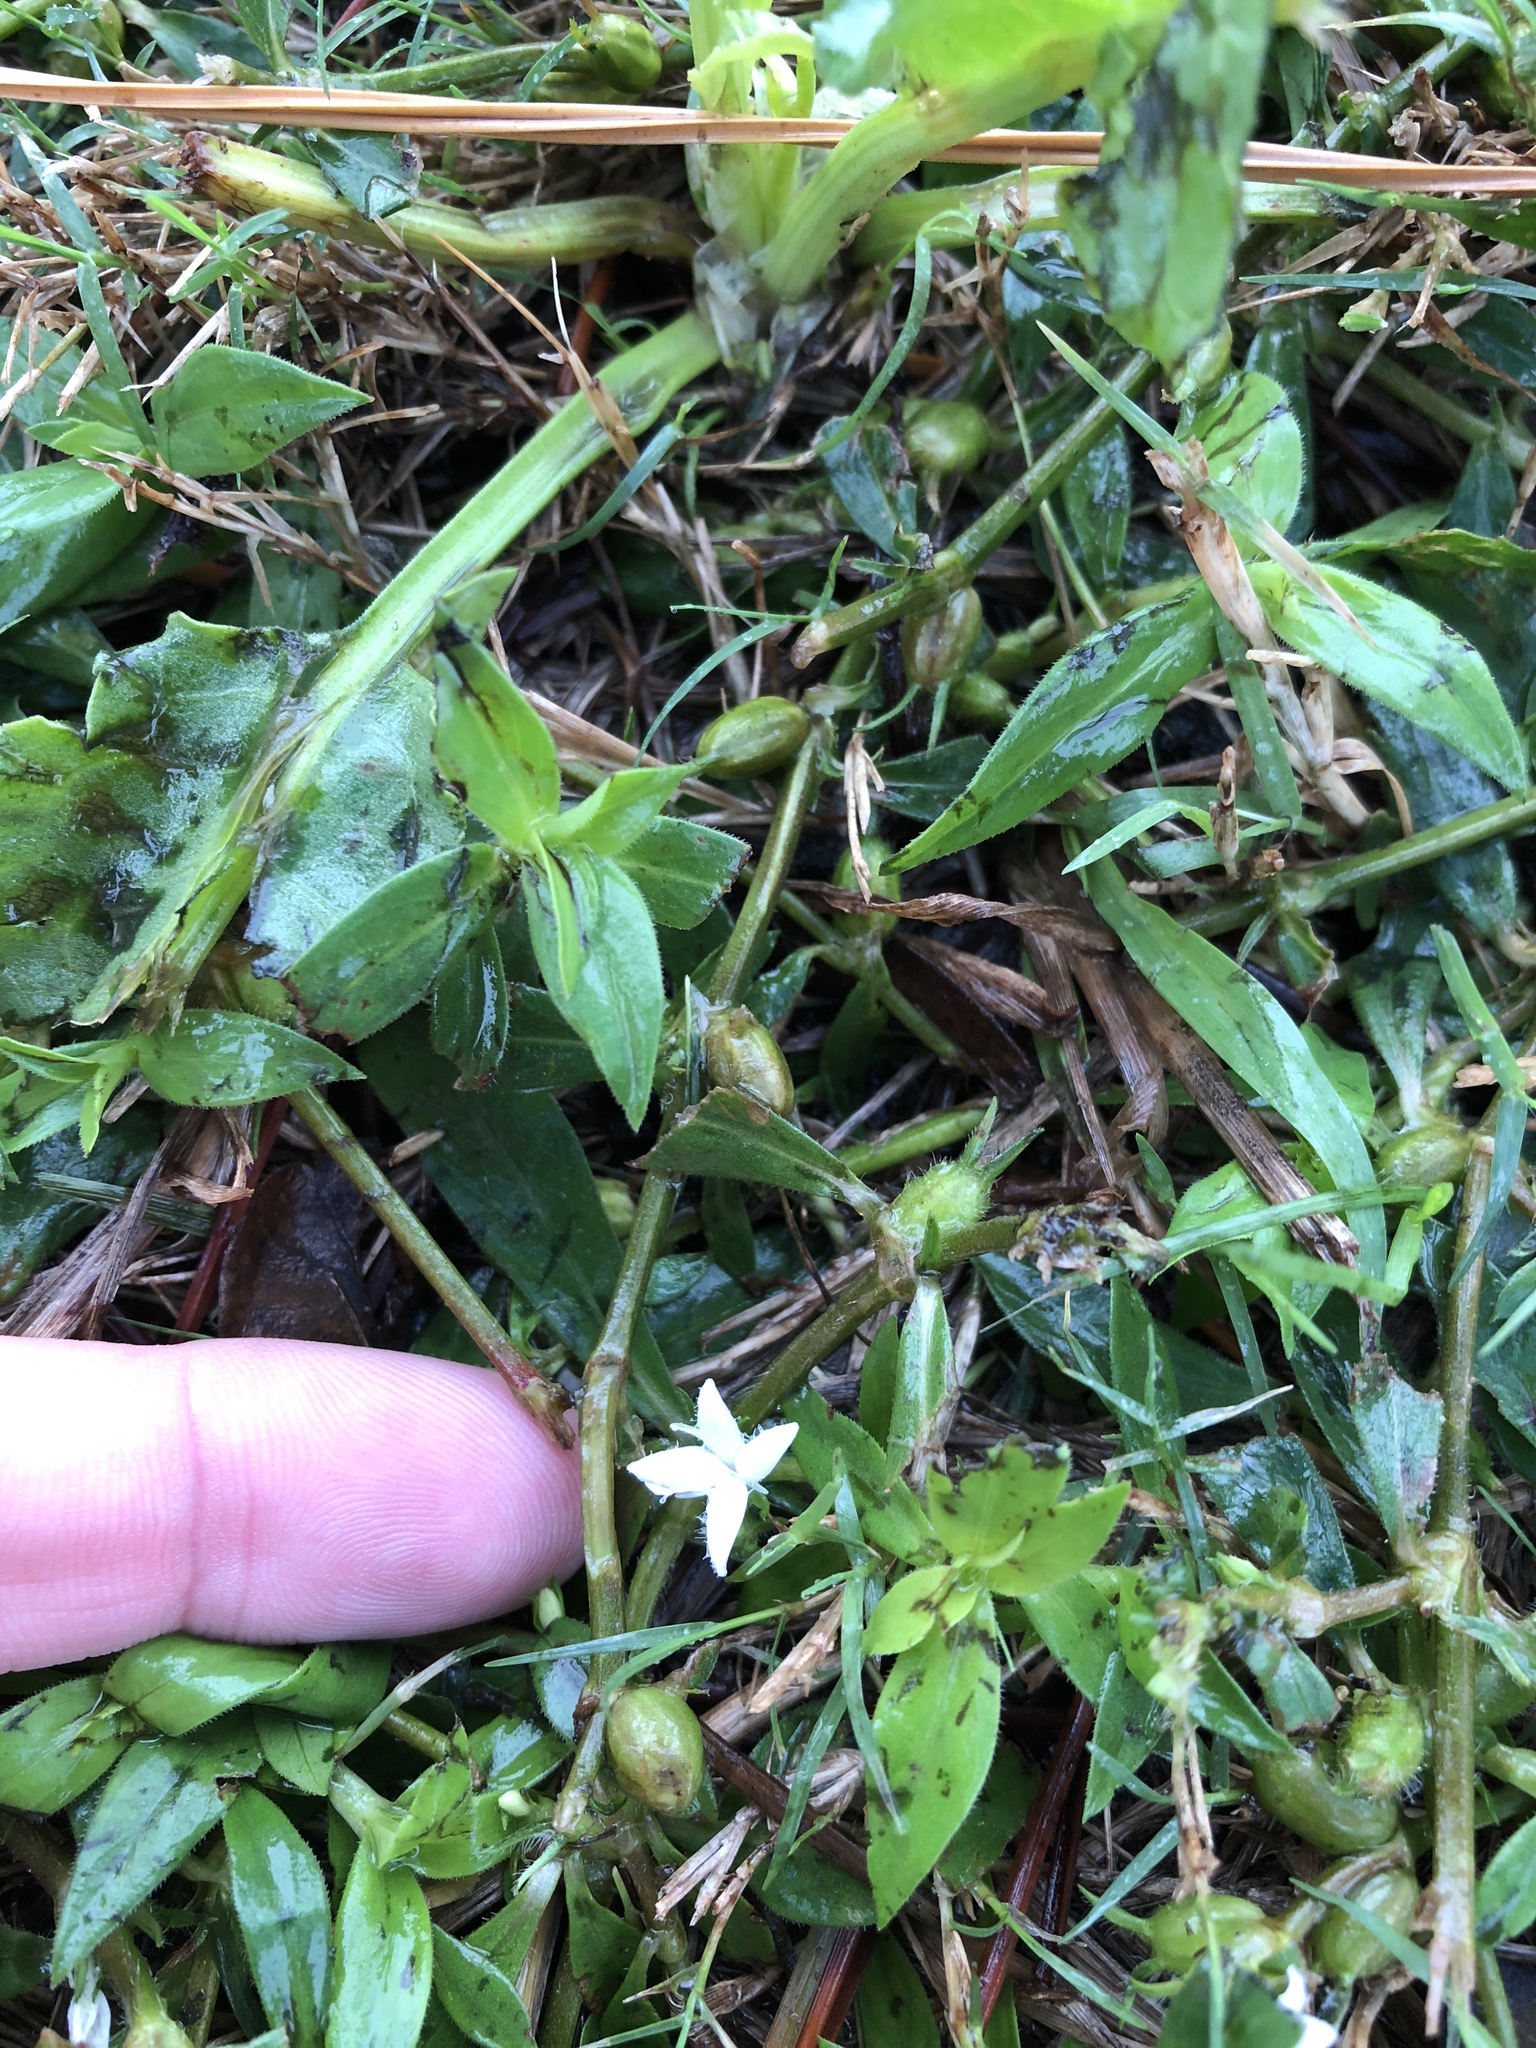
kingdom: Plantae
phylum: Tracheophyta
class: Magnoliopsida
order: Gentianales
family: Rubiaceae
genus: Diodia
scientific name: Diodia virginiana
